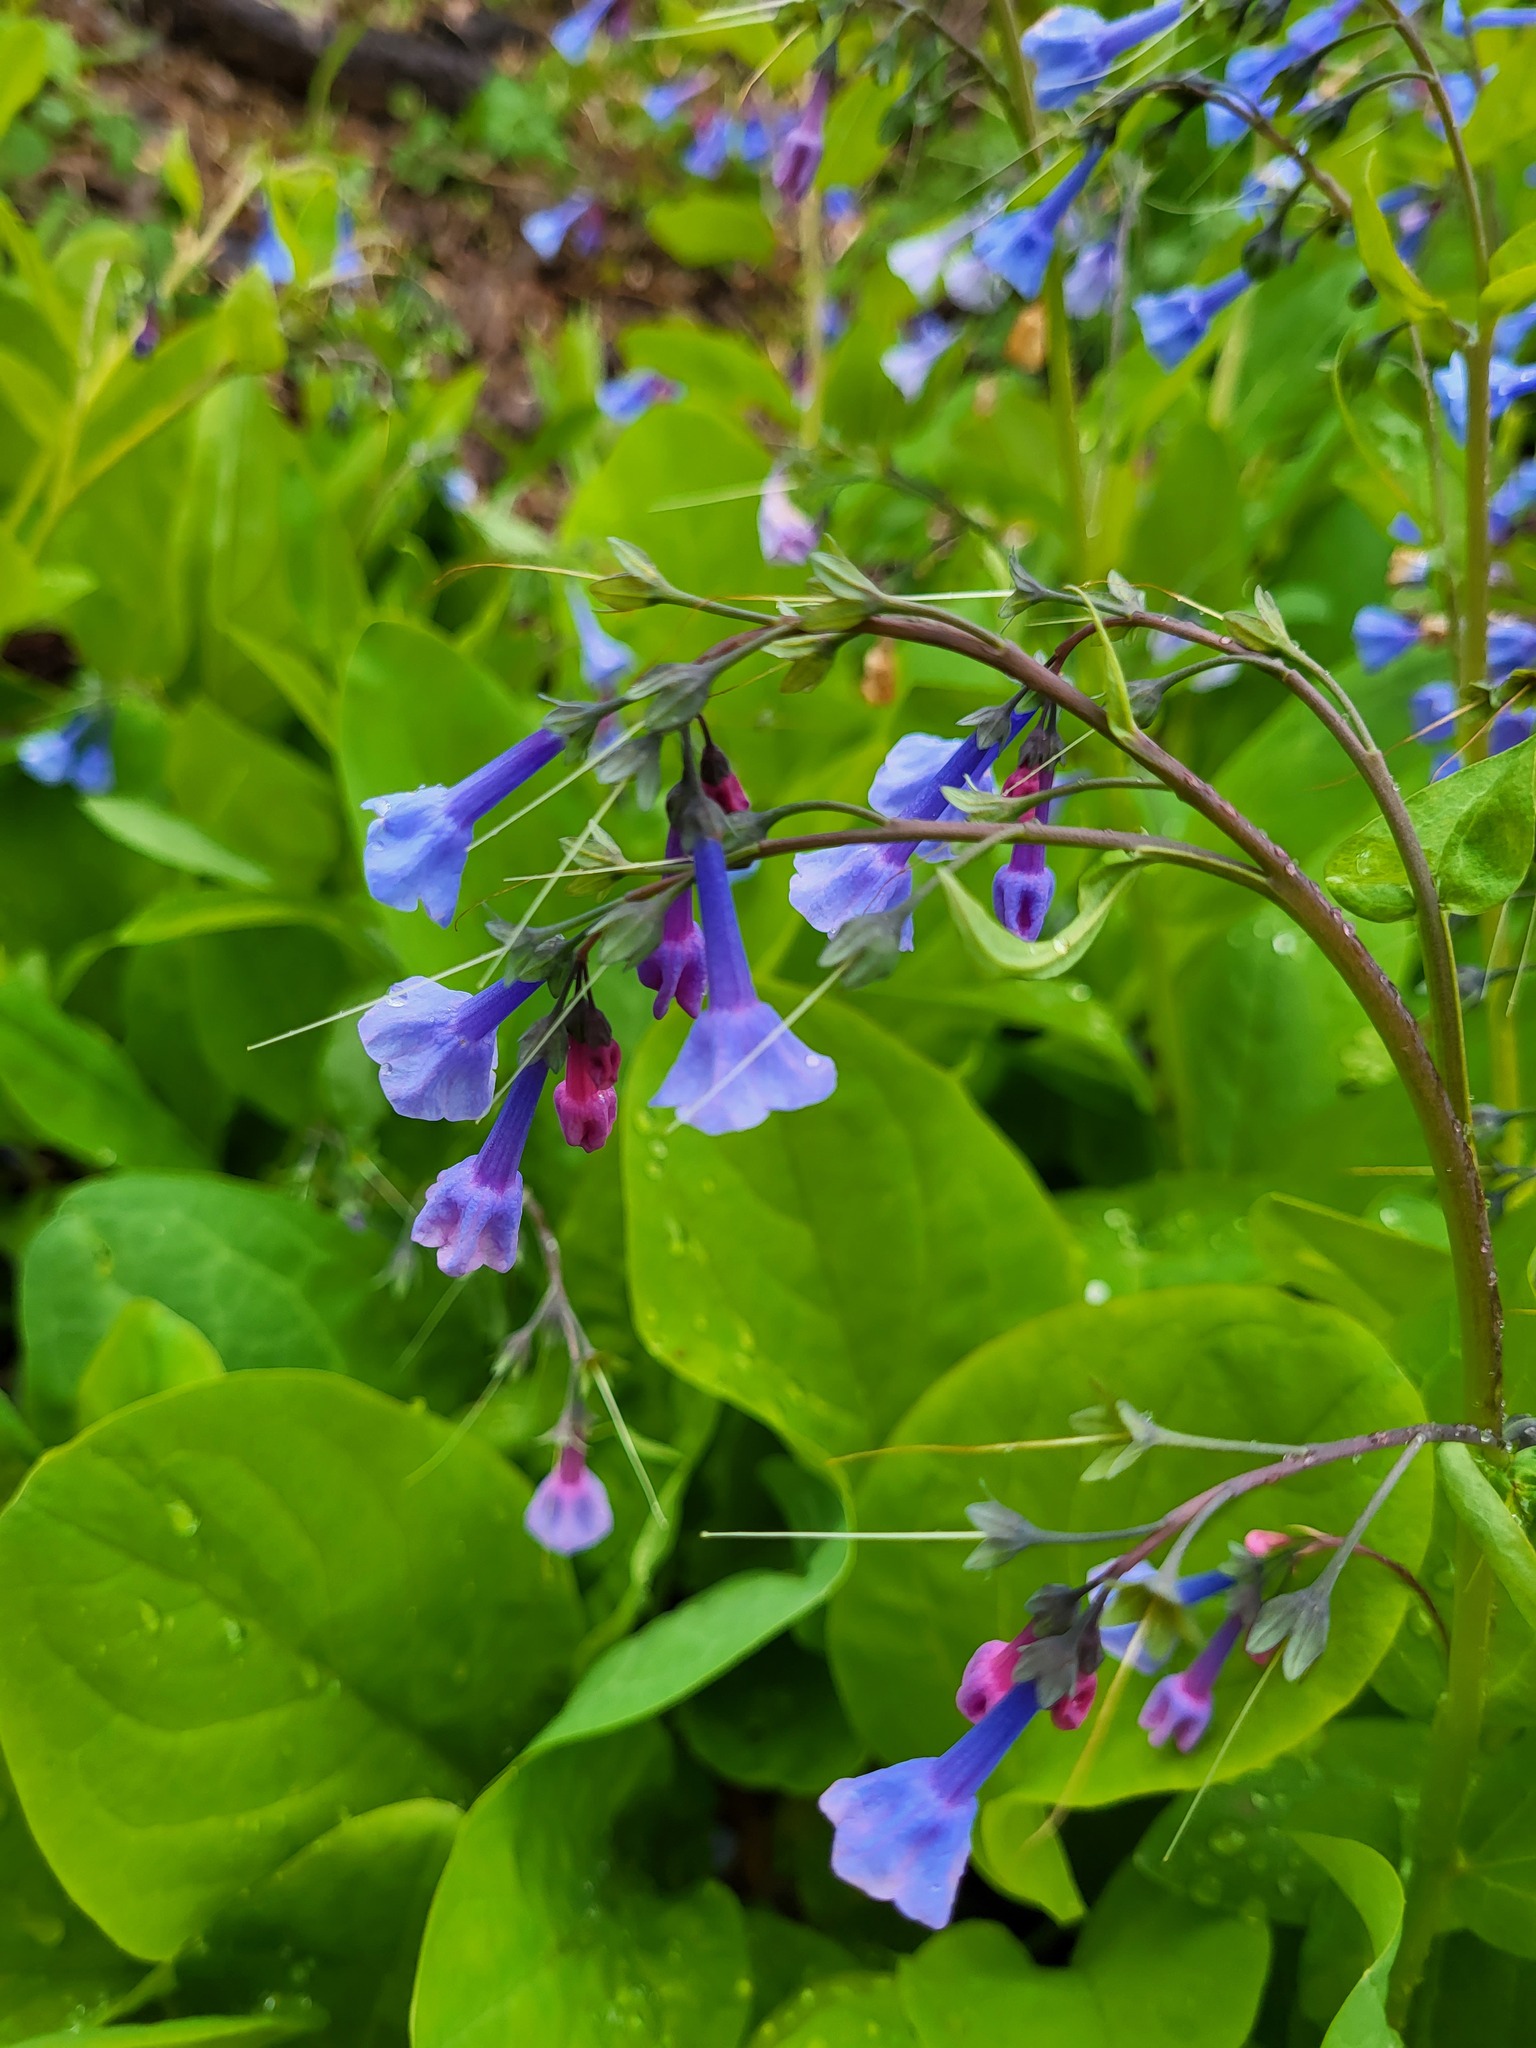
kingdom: Plantae
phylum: Tracheophyta
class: Magnoliopsida
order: Boraginales
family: Boraginaceae
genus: Mertensia
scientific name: Mertensia virginica
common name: Virginia bluebells
